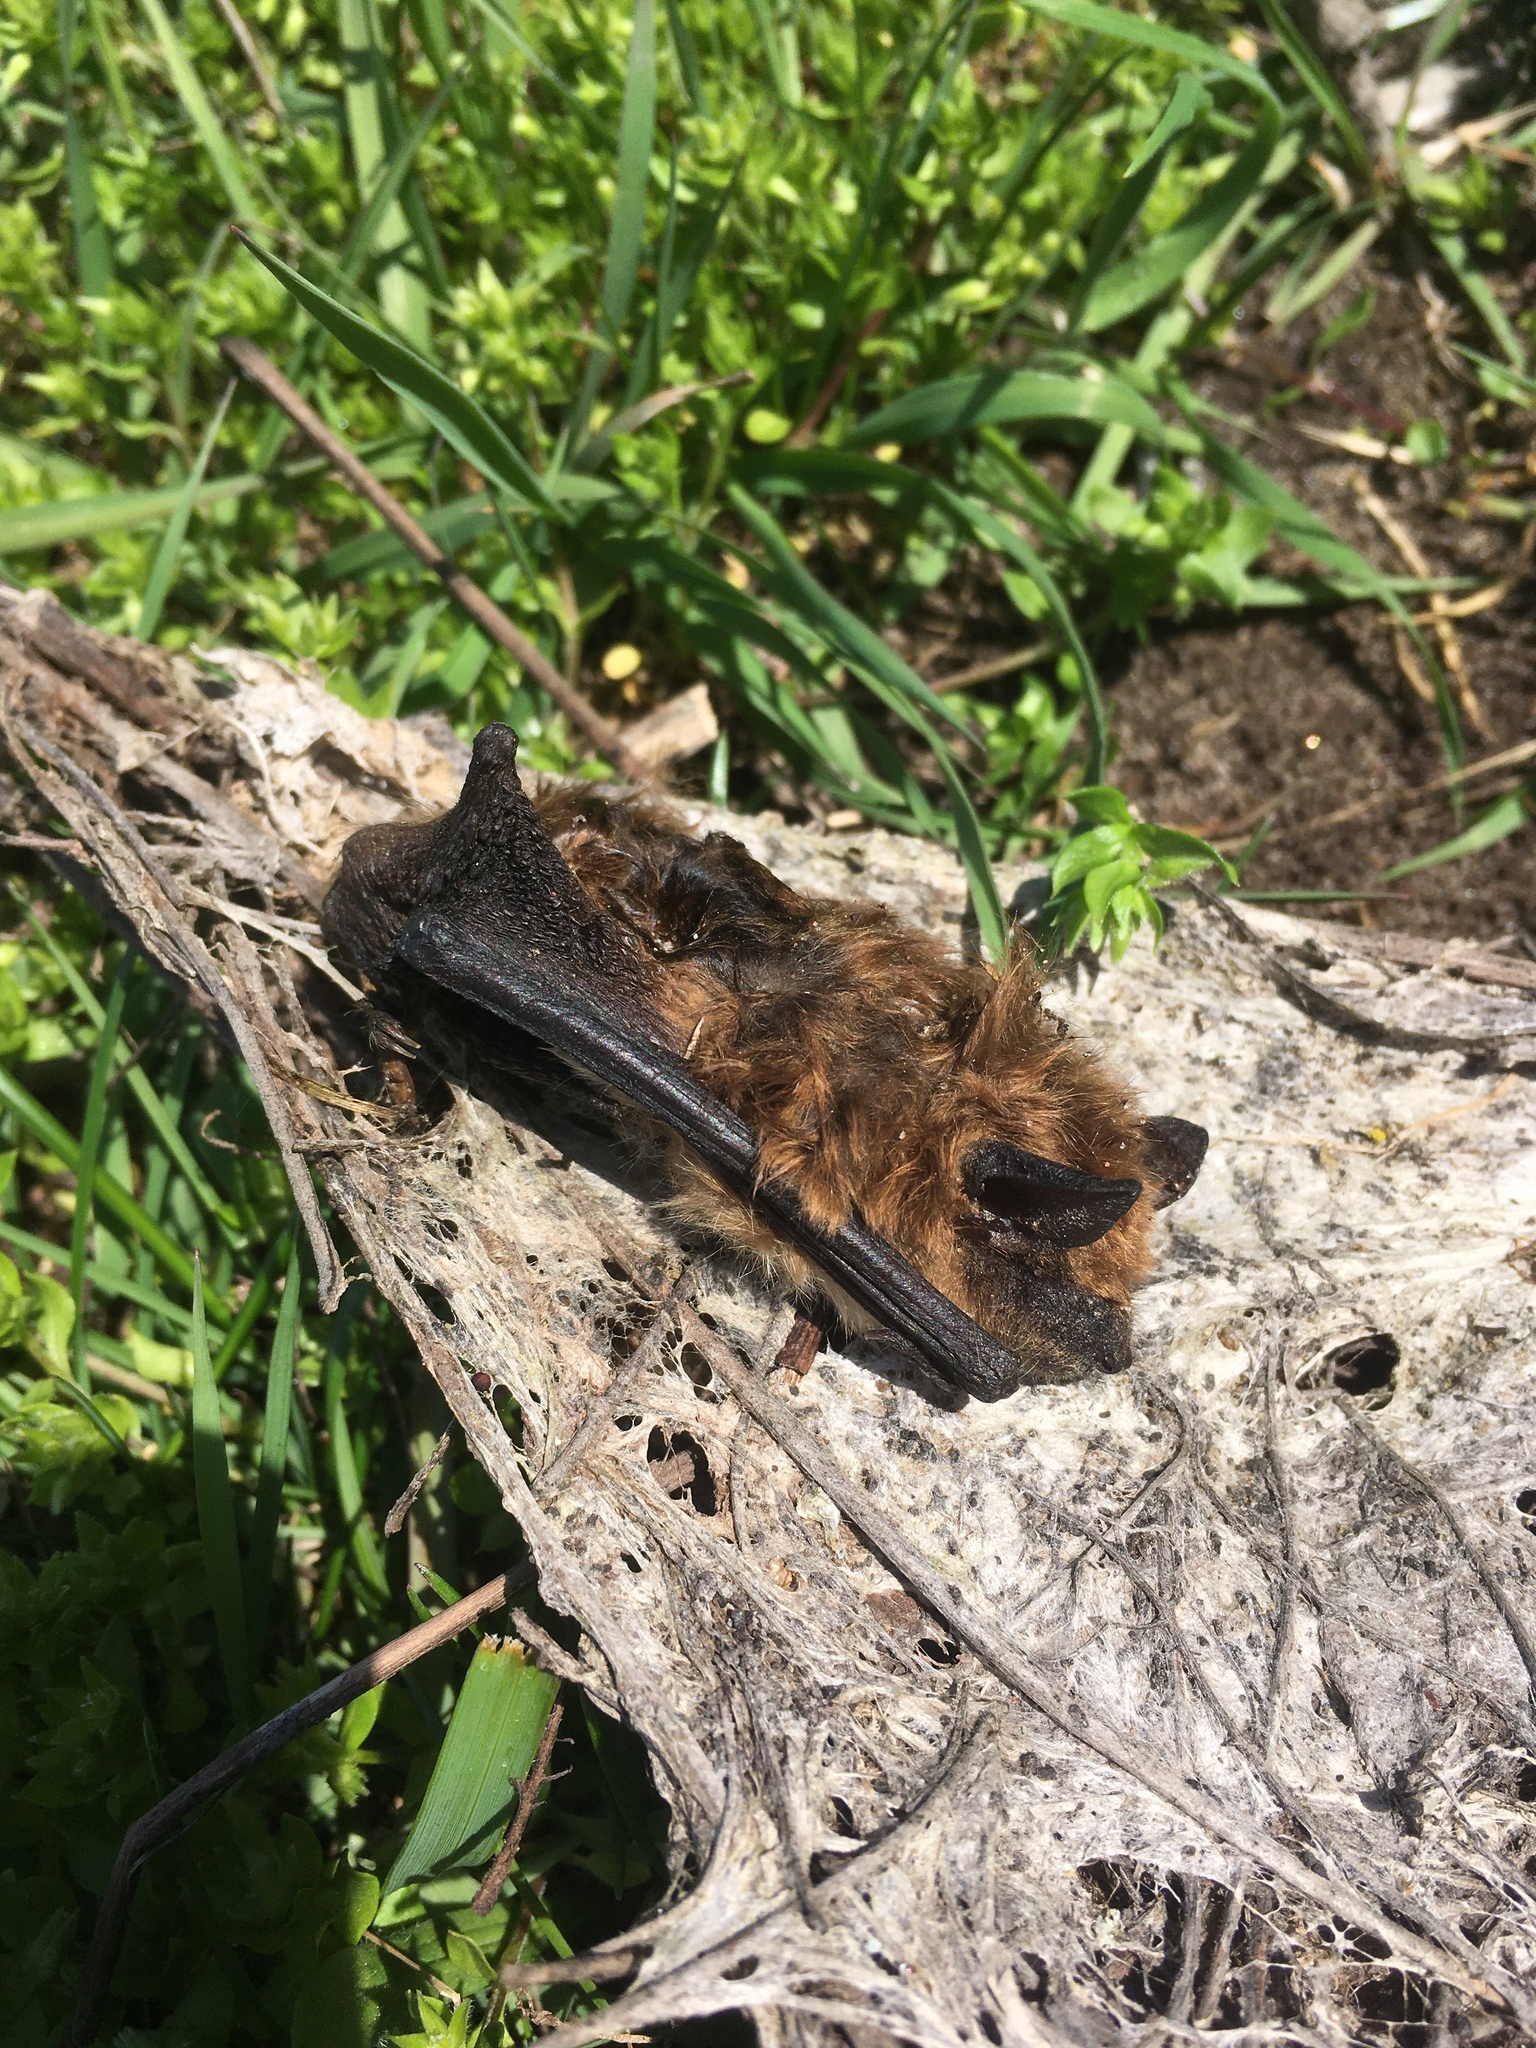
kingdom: Animalia
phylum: Chordata
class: Mammalia
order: Chiroptera
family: Vespertilionidae
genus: Eptesicus
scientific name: Eptesicus fuscus
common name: Big brown bat
